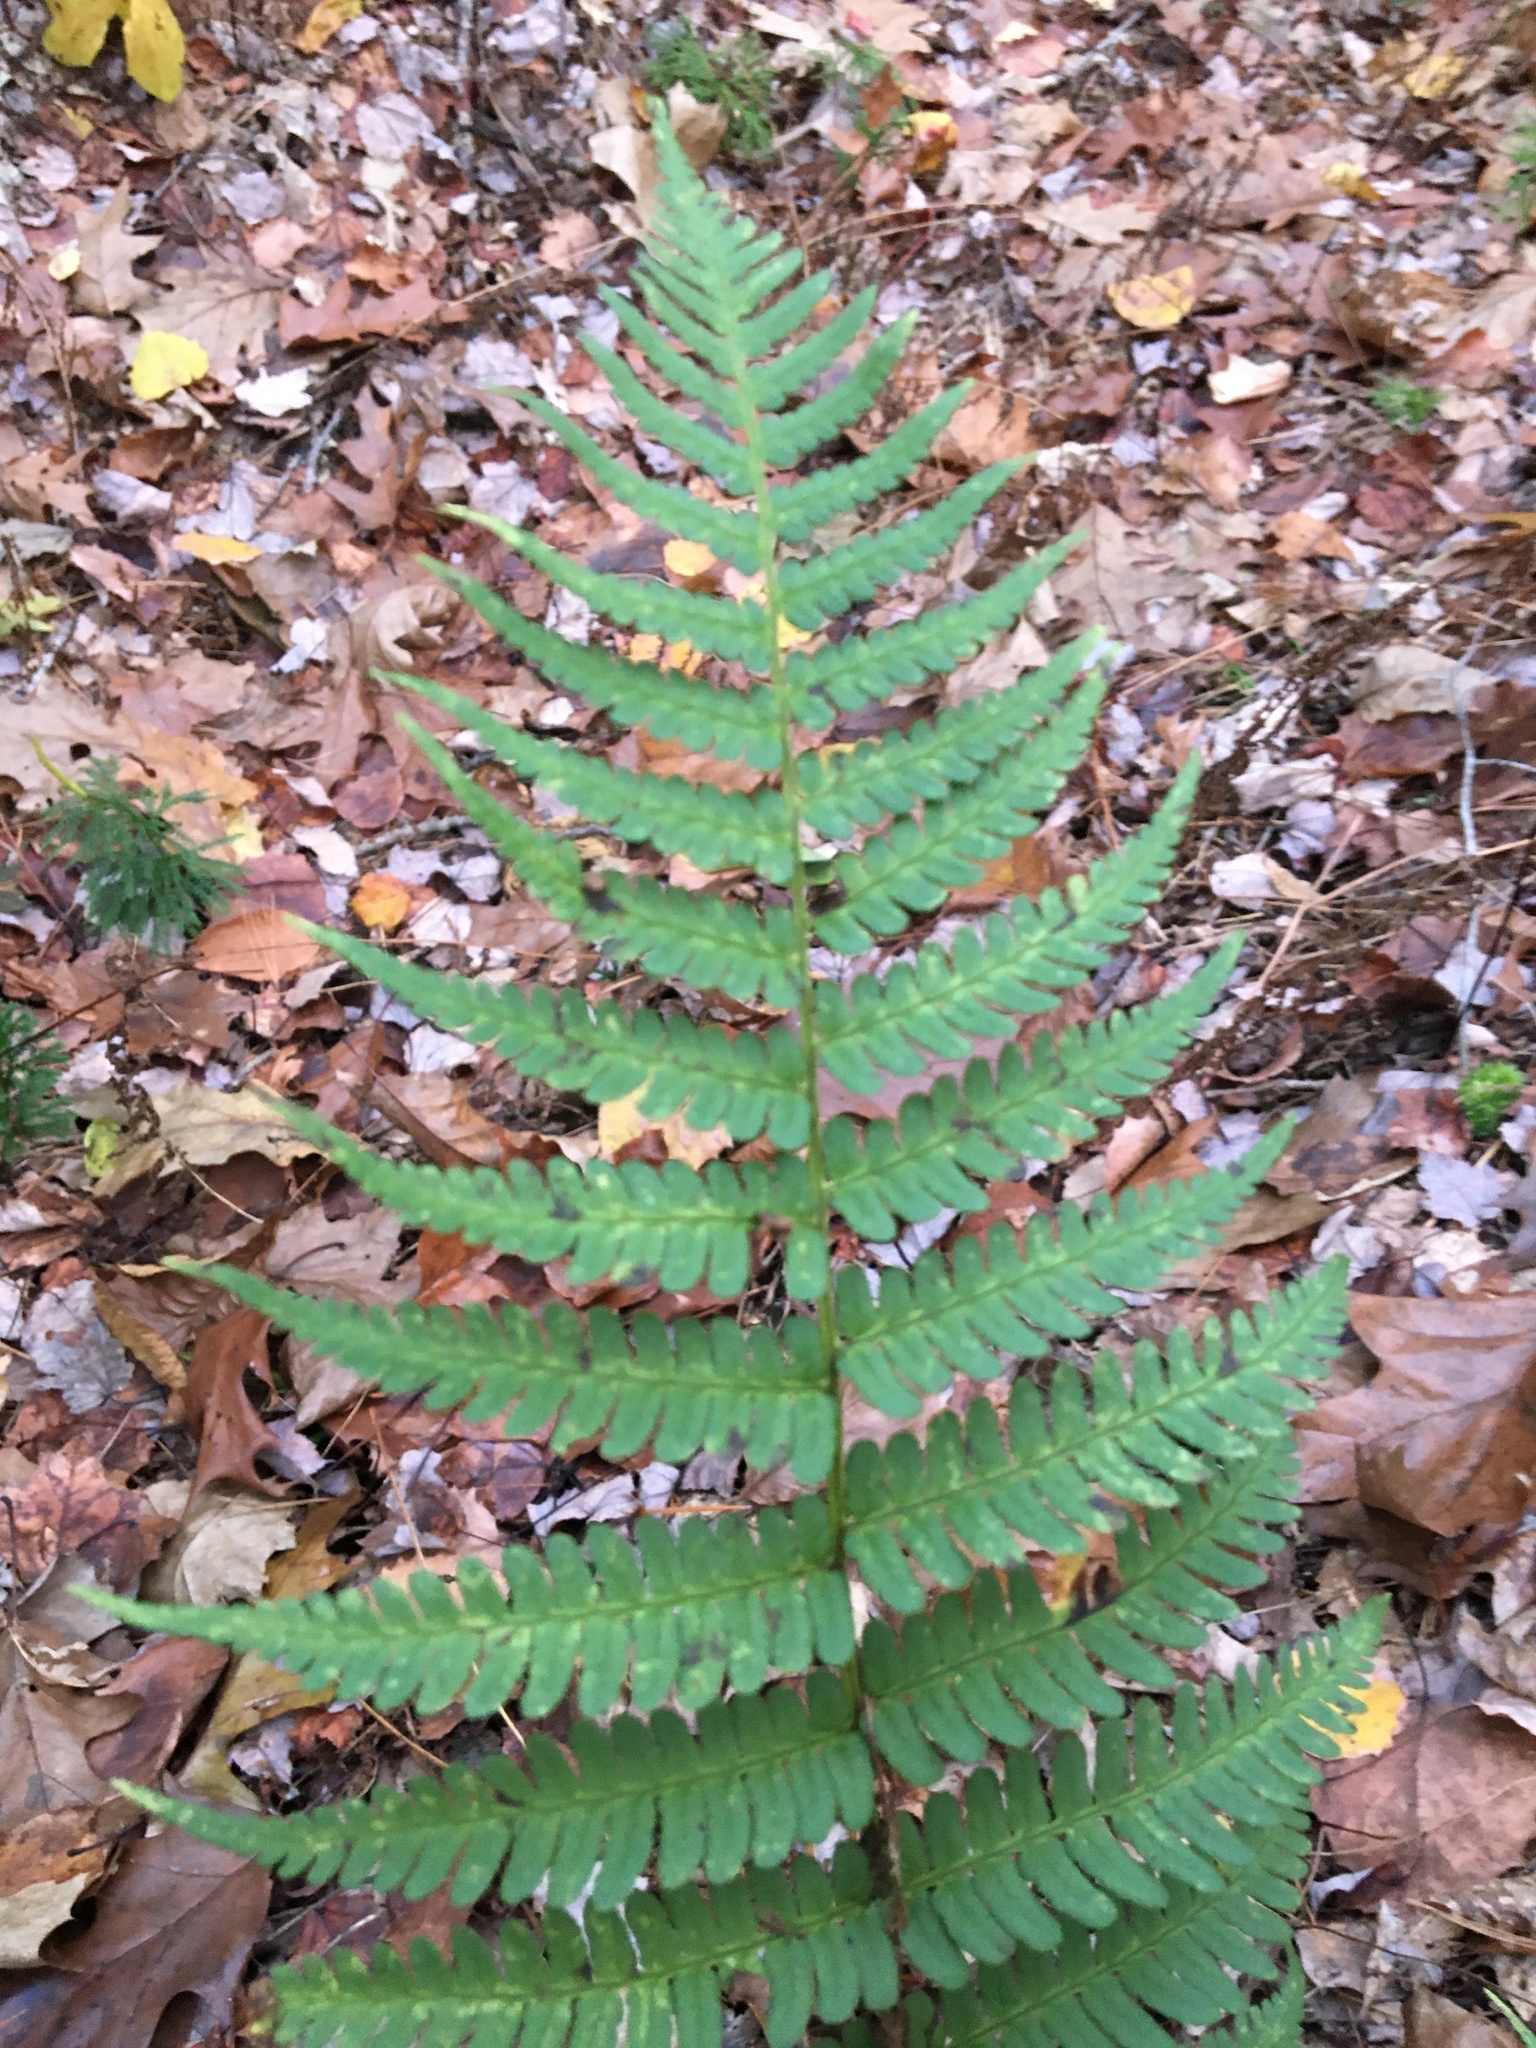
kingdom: Plantae
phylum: Tracheophyta
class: Polypodiopsida
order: Polypodiales
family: Dryopteridaceae
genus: Dryopteris
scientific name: Dryopteris marginalis
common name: Marginal wood fern
